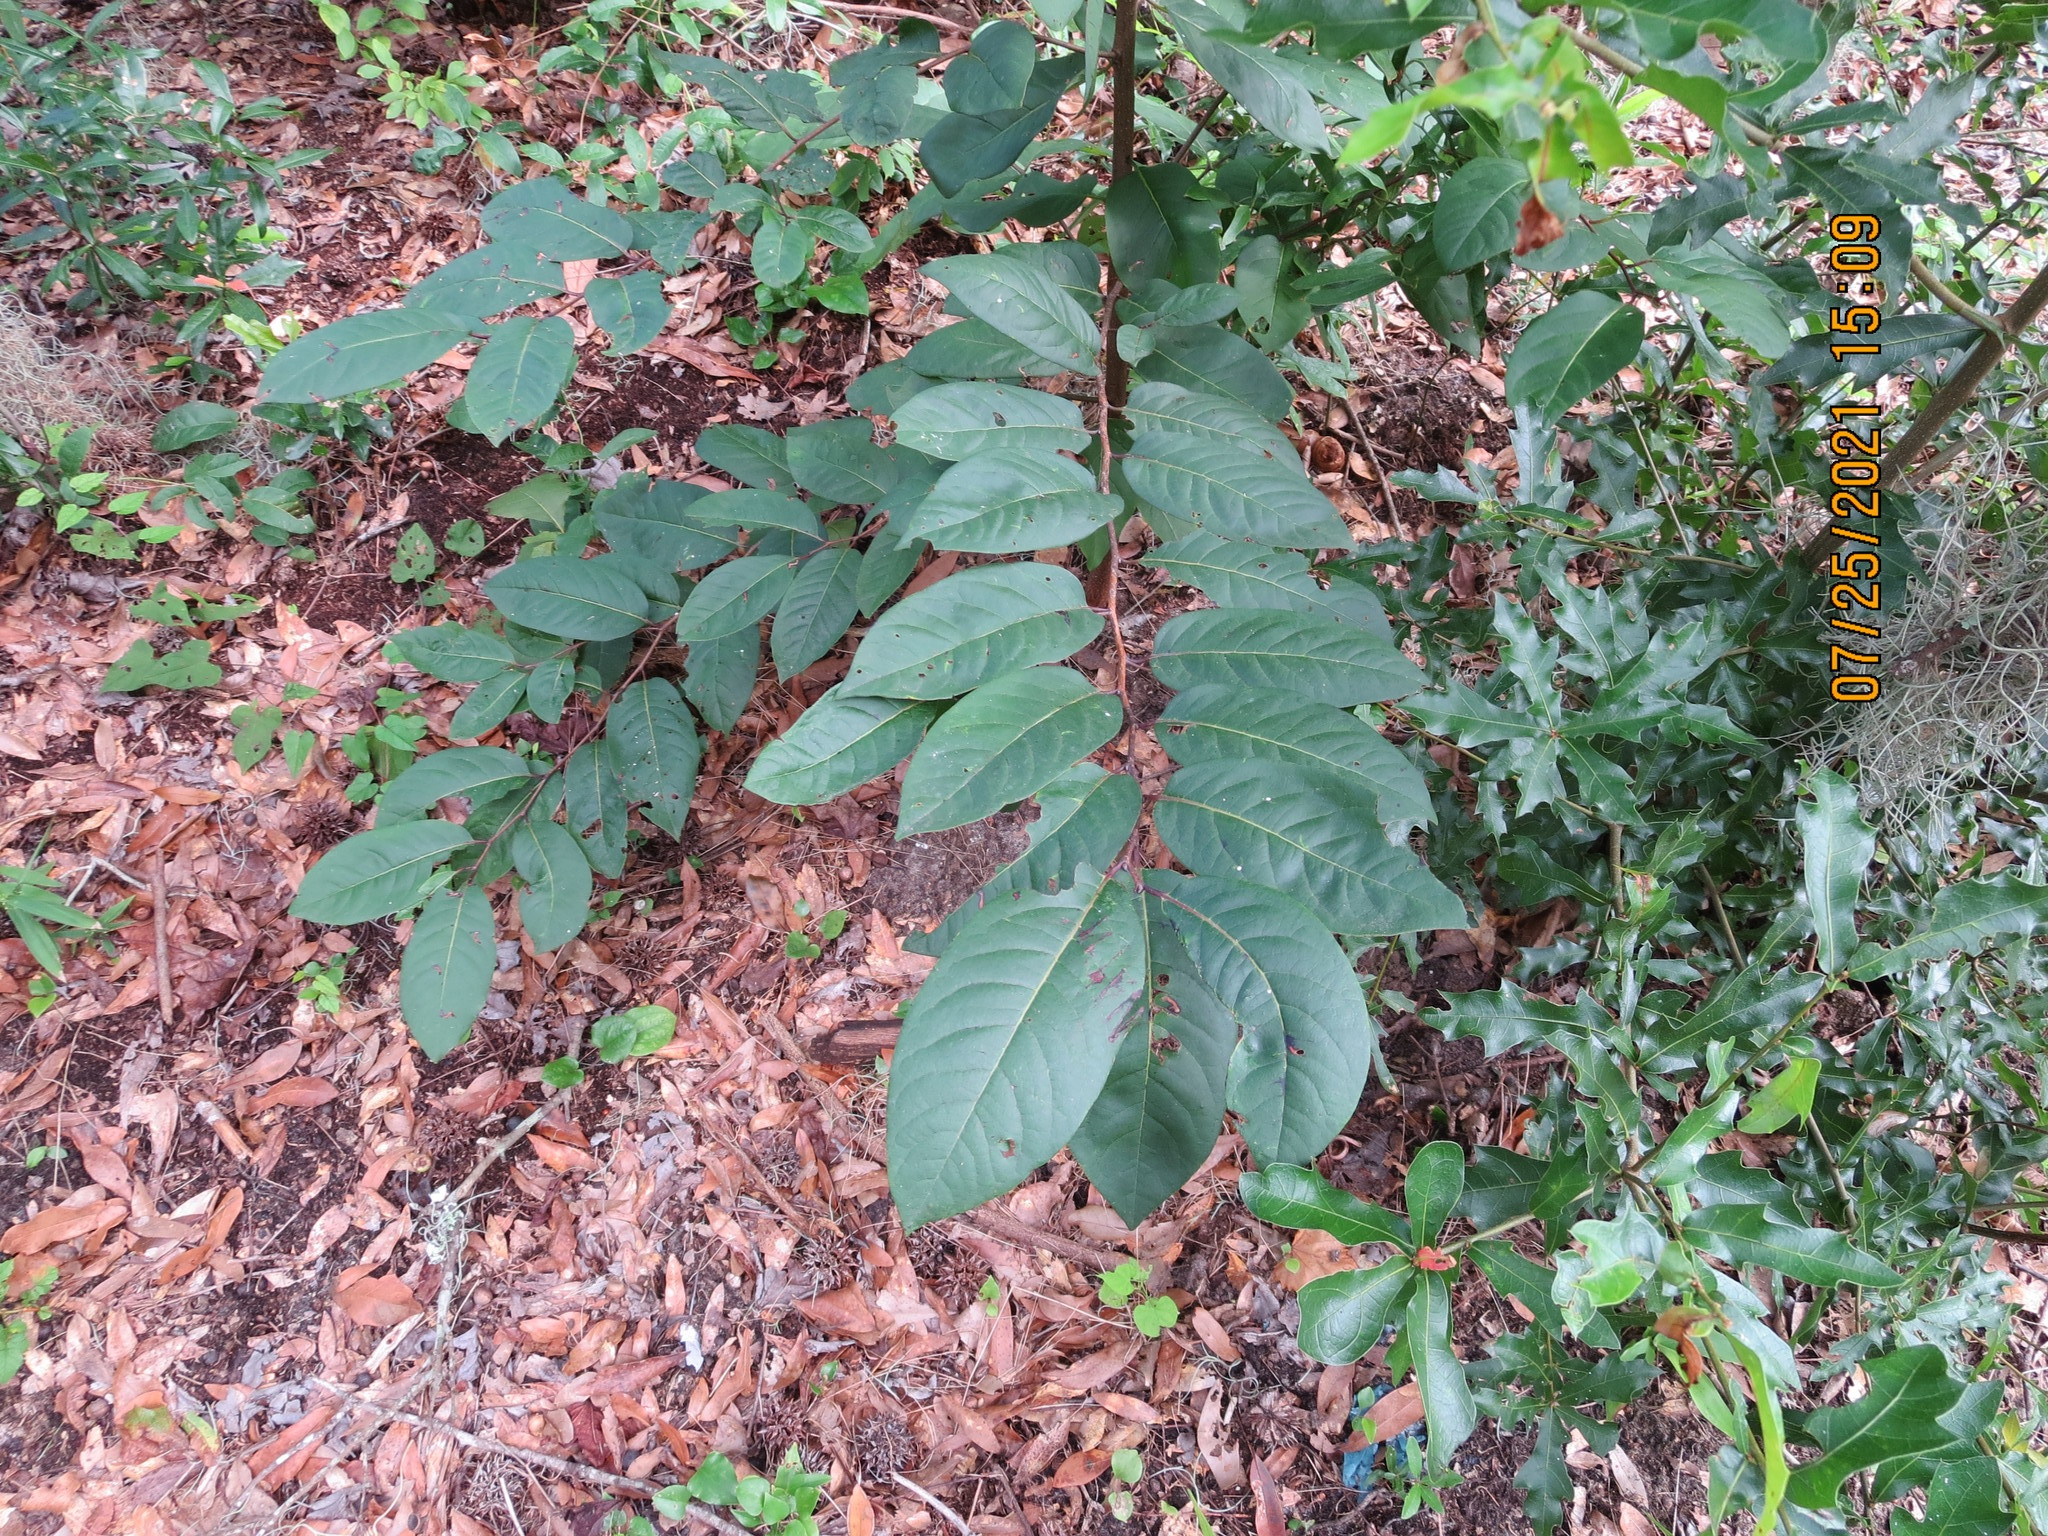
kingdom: Plantae
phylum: Tracheophyta
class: Magnoliopsida
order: Ericales
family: Ebenaceae
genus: Diospyros
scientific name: Diospyros virginiana
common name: Persimmon
